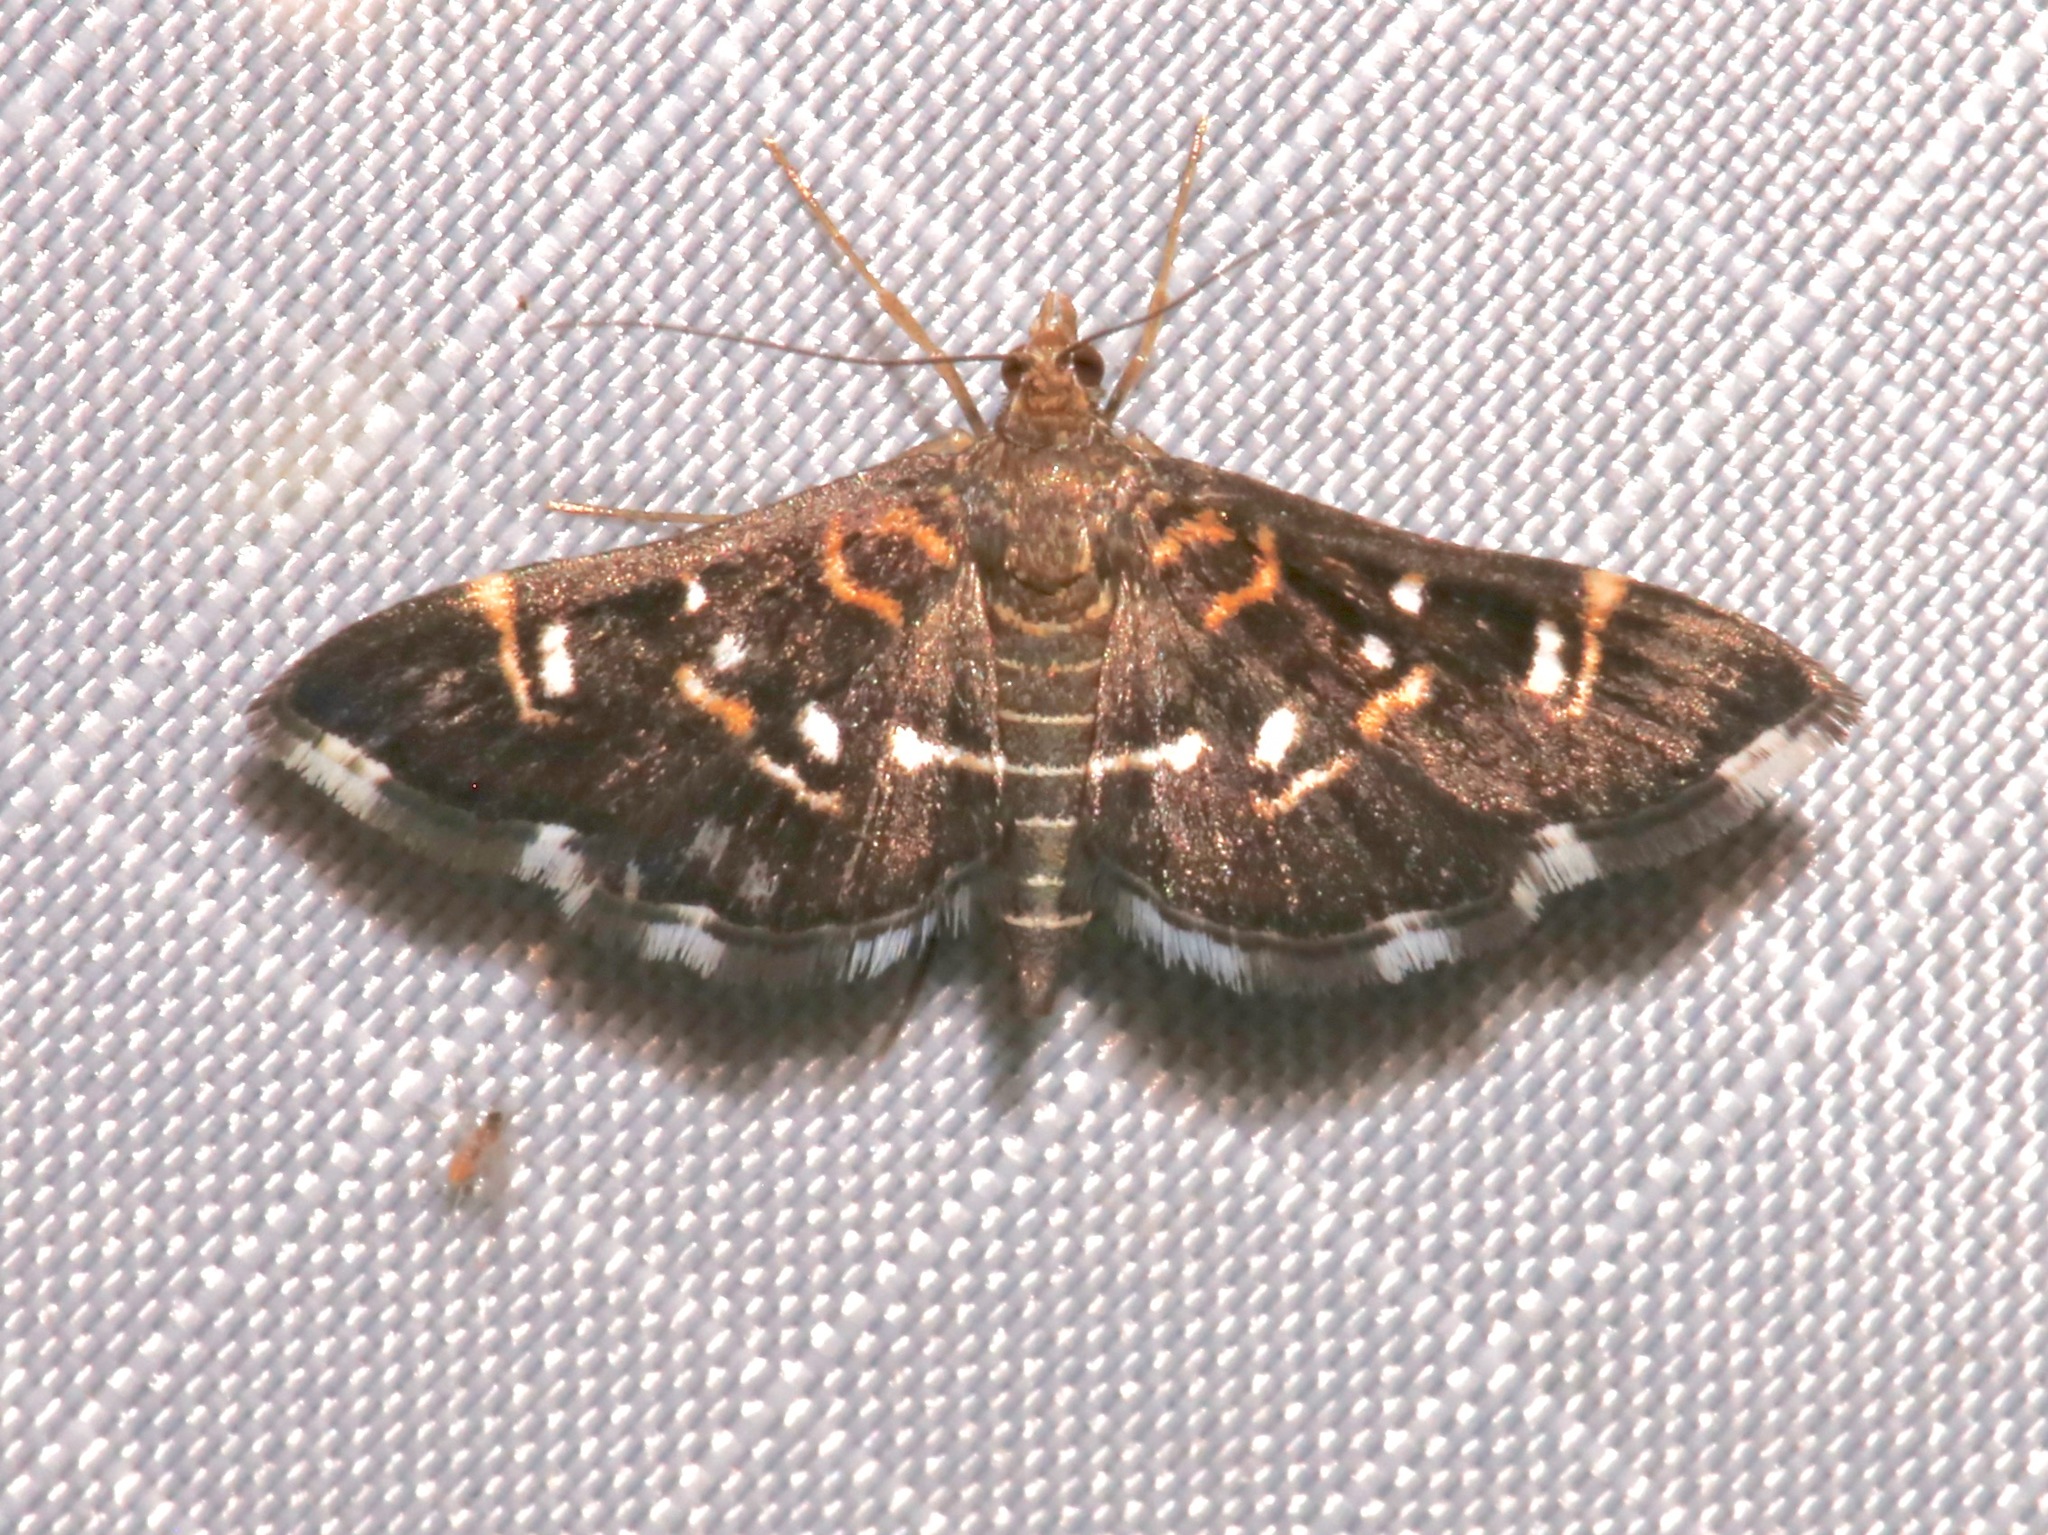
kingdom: Animalia
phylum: Arthropoda
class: Insecta
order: Lepidoptera
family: Crambidae
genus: Diathrausta
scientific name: Diathrausta harlequinalis
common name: Harlequin webworm moth
